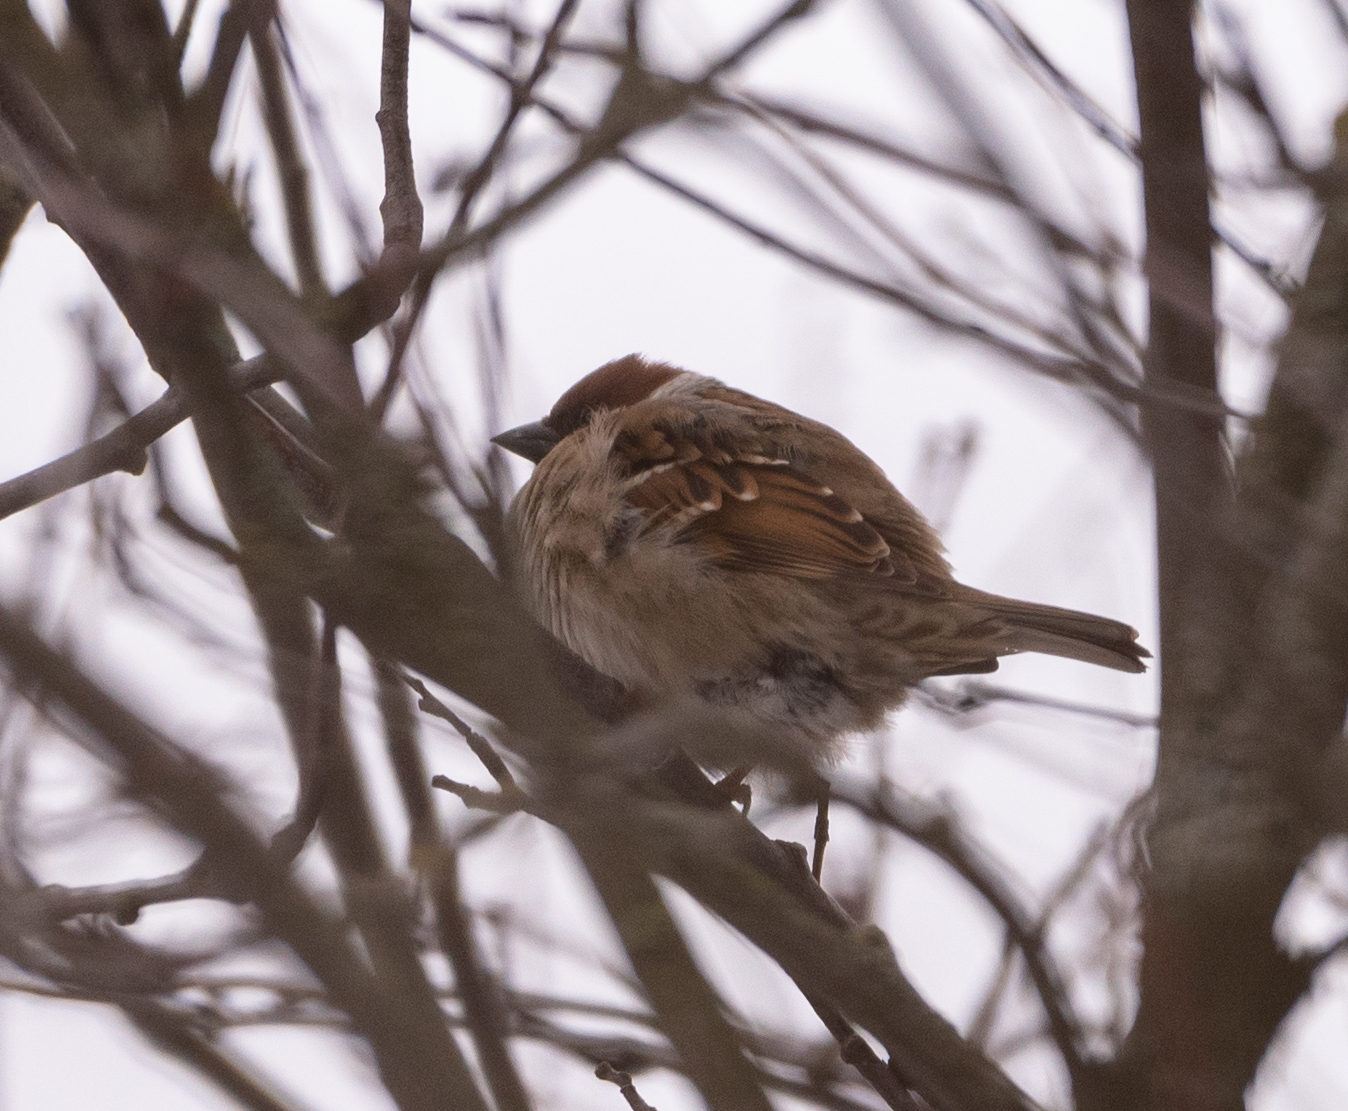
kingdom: Animalia
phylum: Chordata
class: Aves
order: Passeriformes
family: Passeridae
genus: Passer
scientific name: Passer montanus
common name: Eurasian tree sparrow
